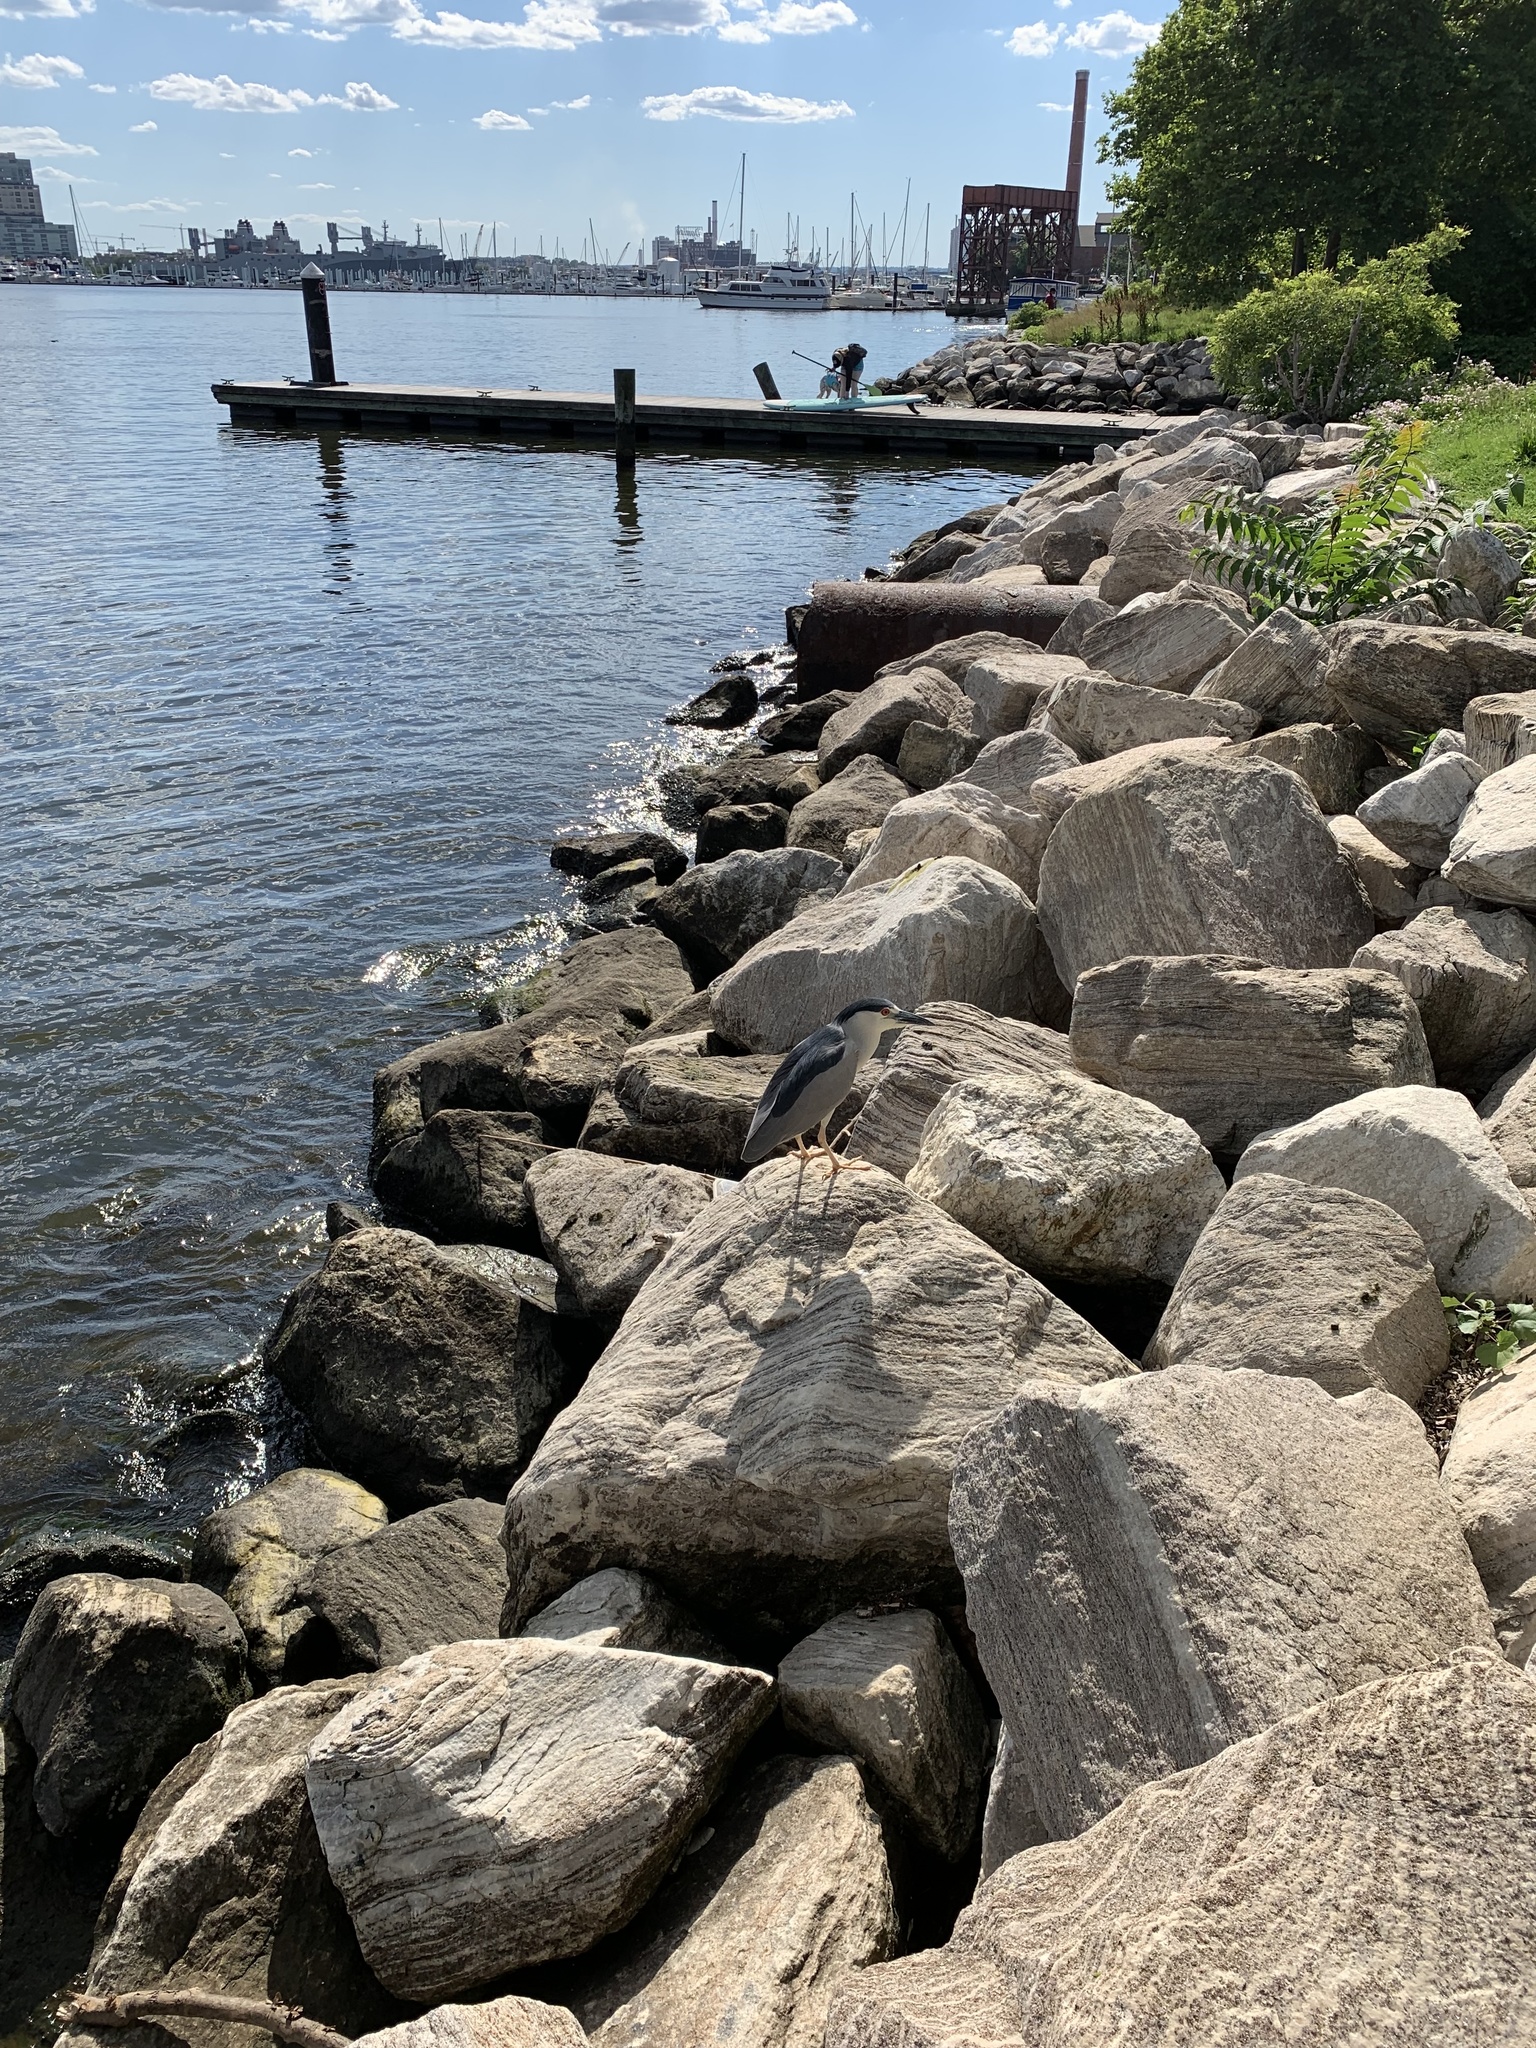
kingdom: Animalia
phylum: Chordata
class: Aves
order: Pelecaniformes
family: Ardeidae
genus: Nycticorax
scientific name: Nycticorax nycticorax
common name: Black-crowned night heron
